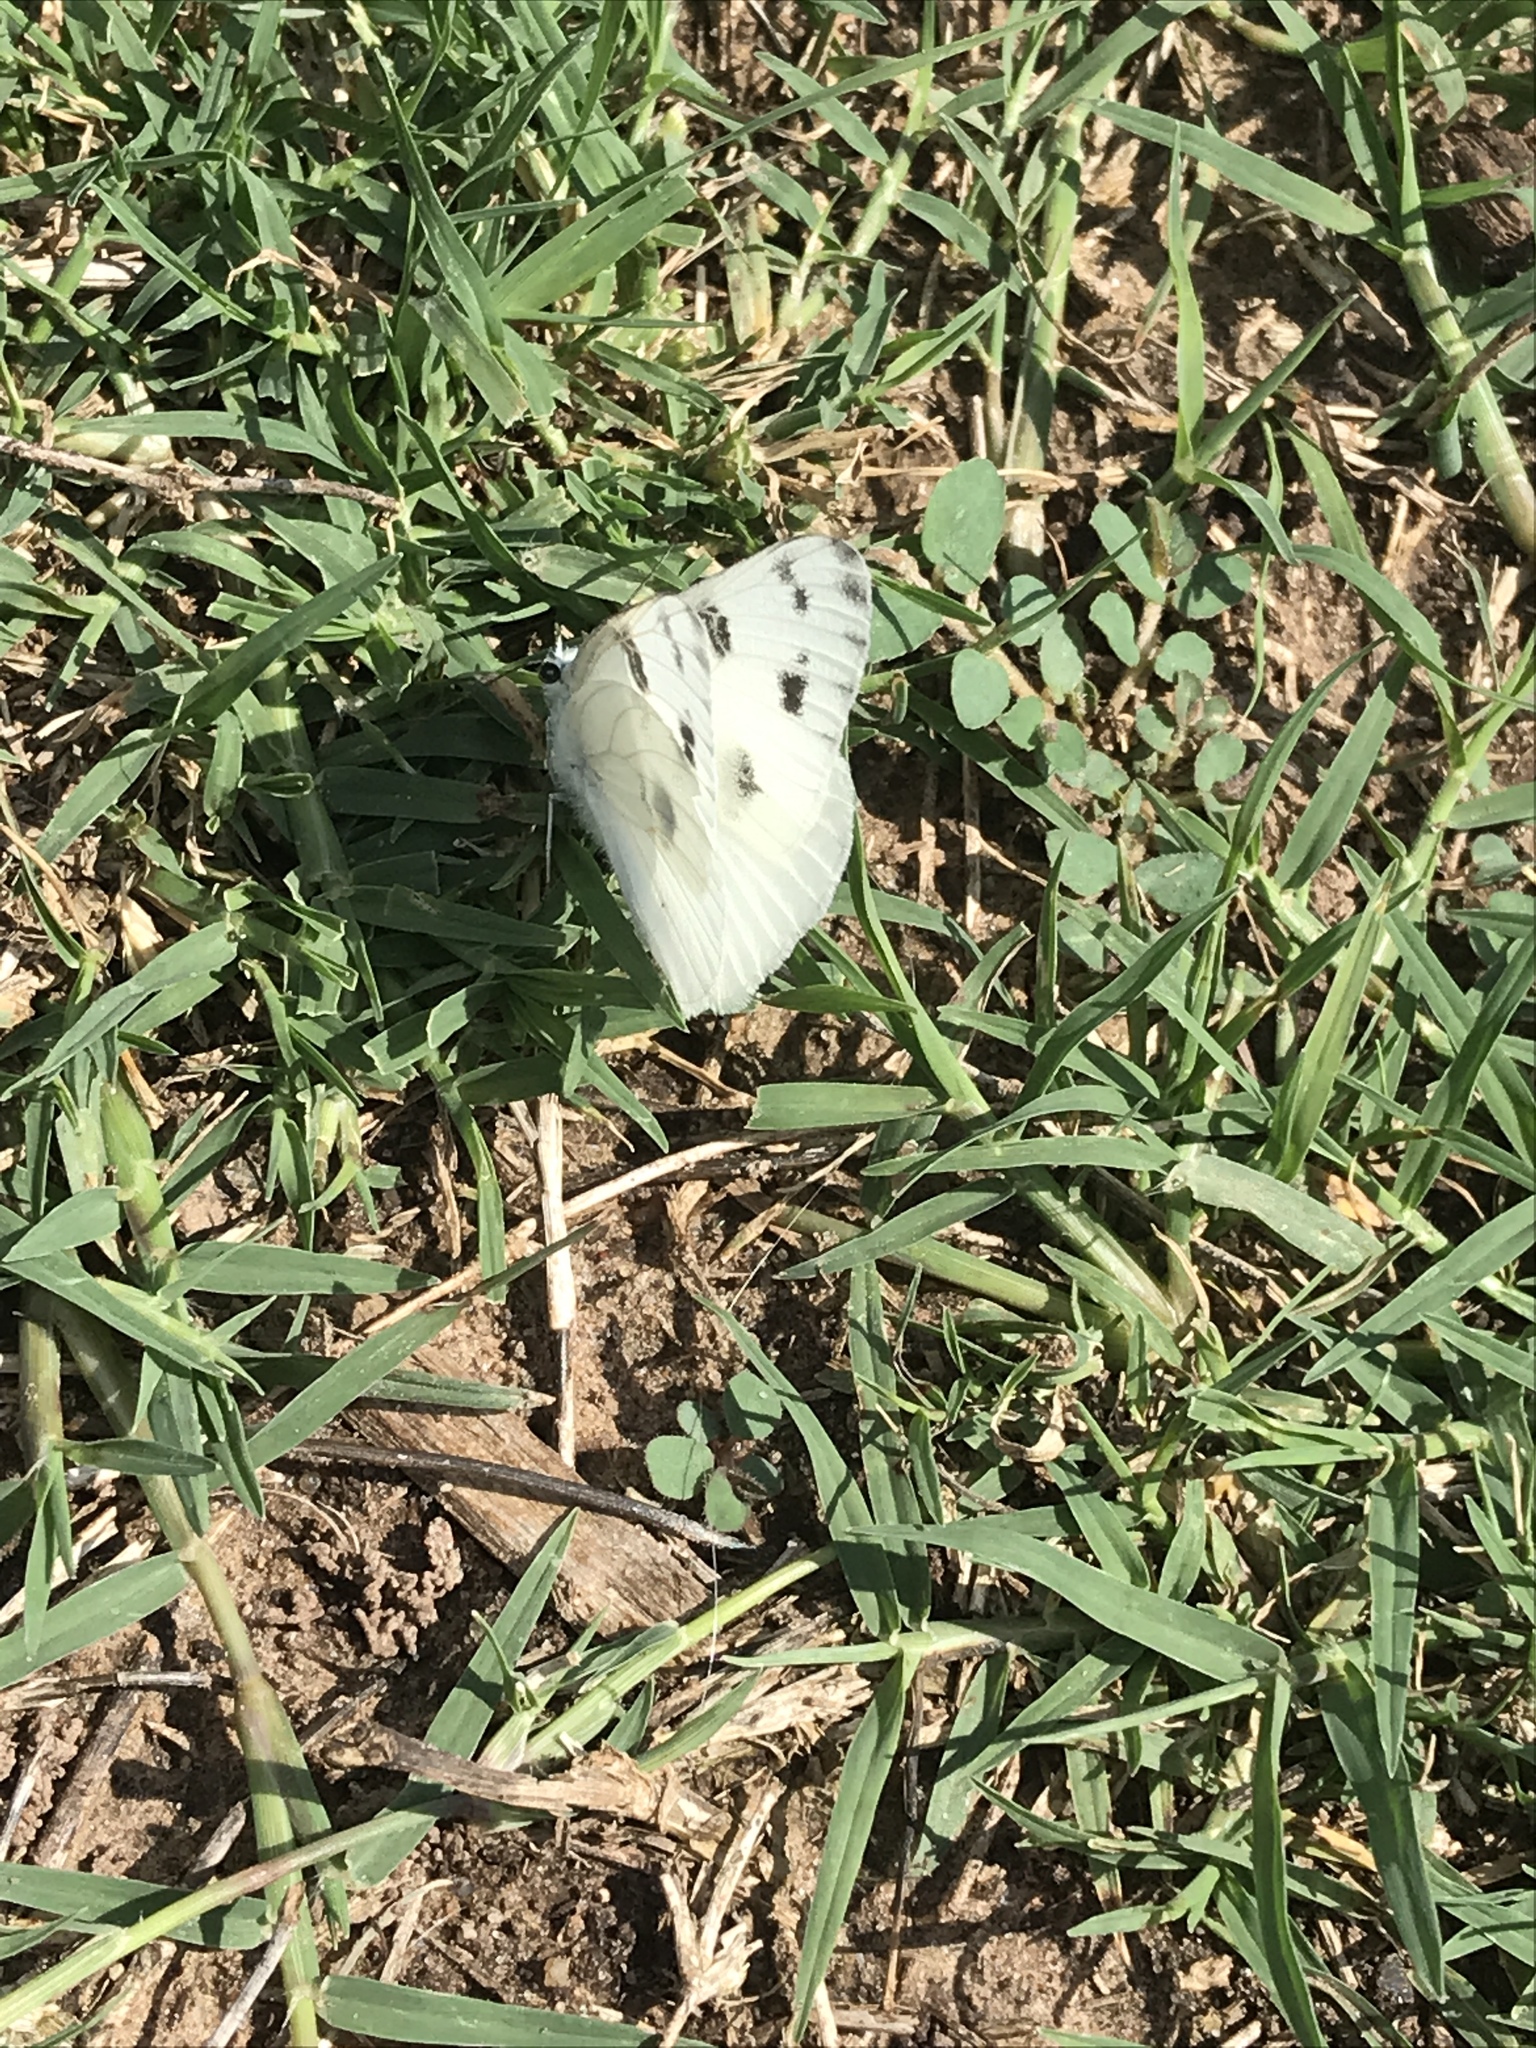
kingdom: Animalia
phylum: Arthropoda
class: Insecta
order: Lepidoptera
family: Pieridae
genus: Pontia
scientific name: Pontia protodice
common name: Checkered white
